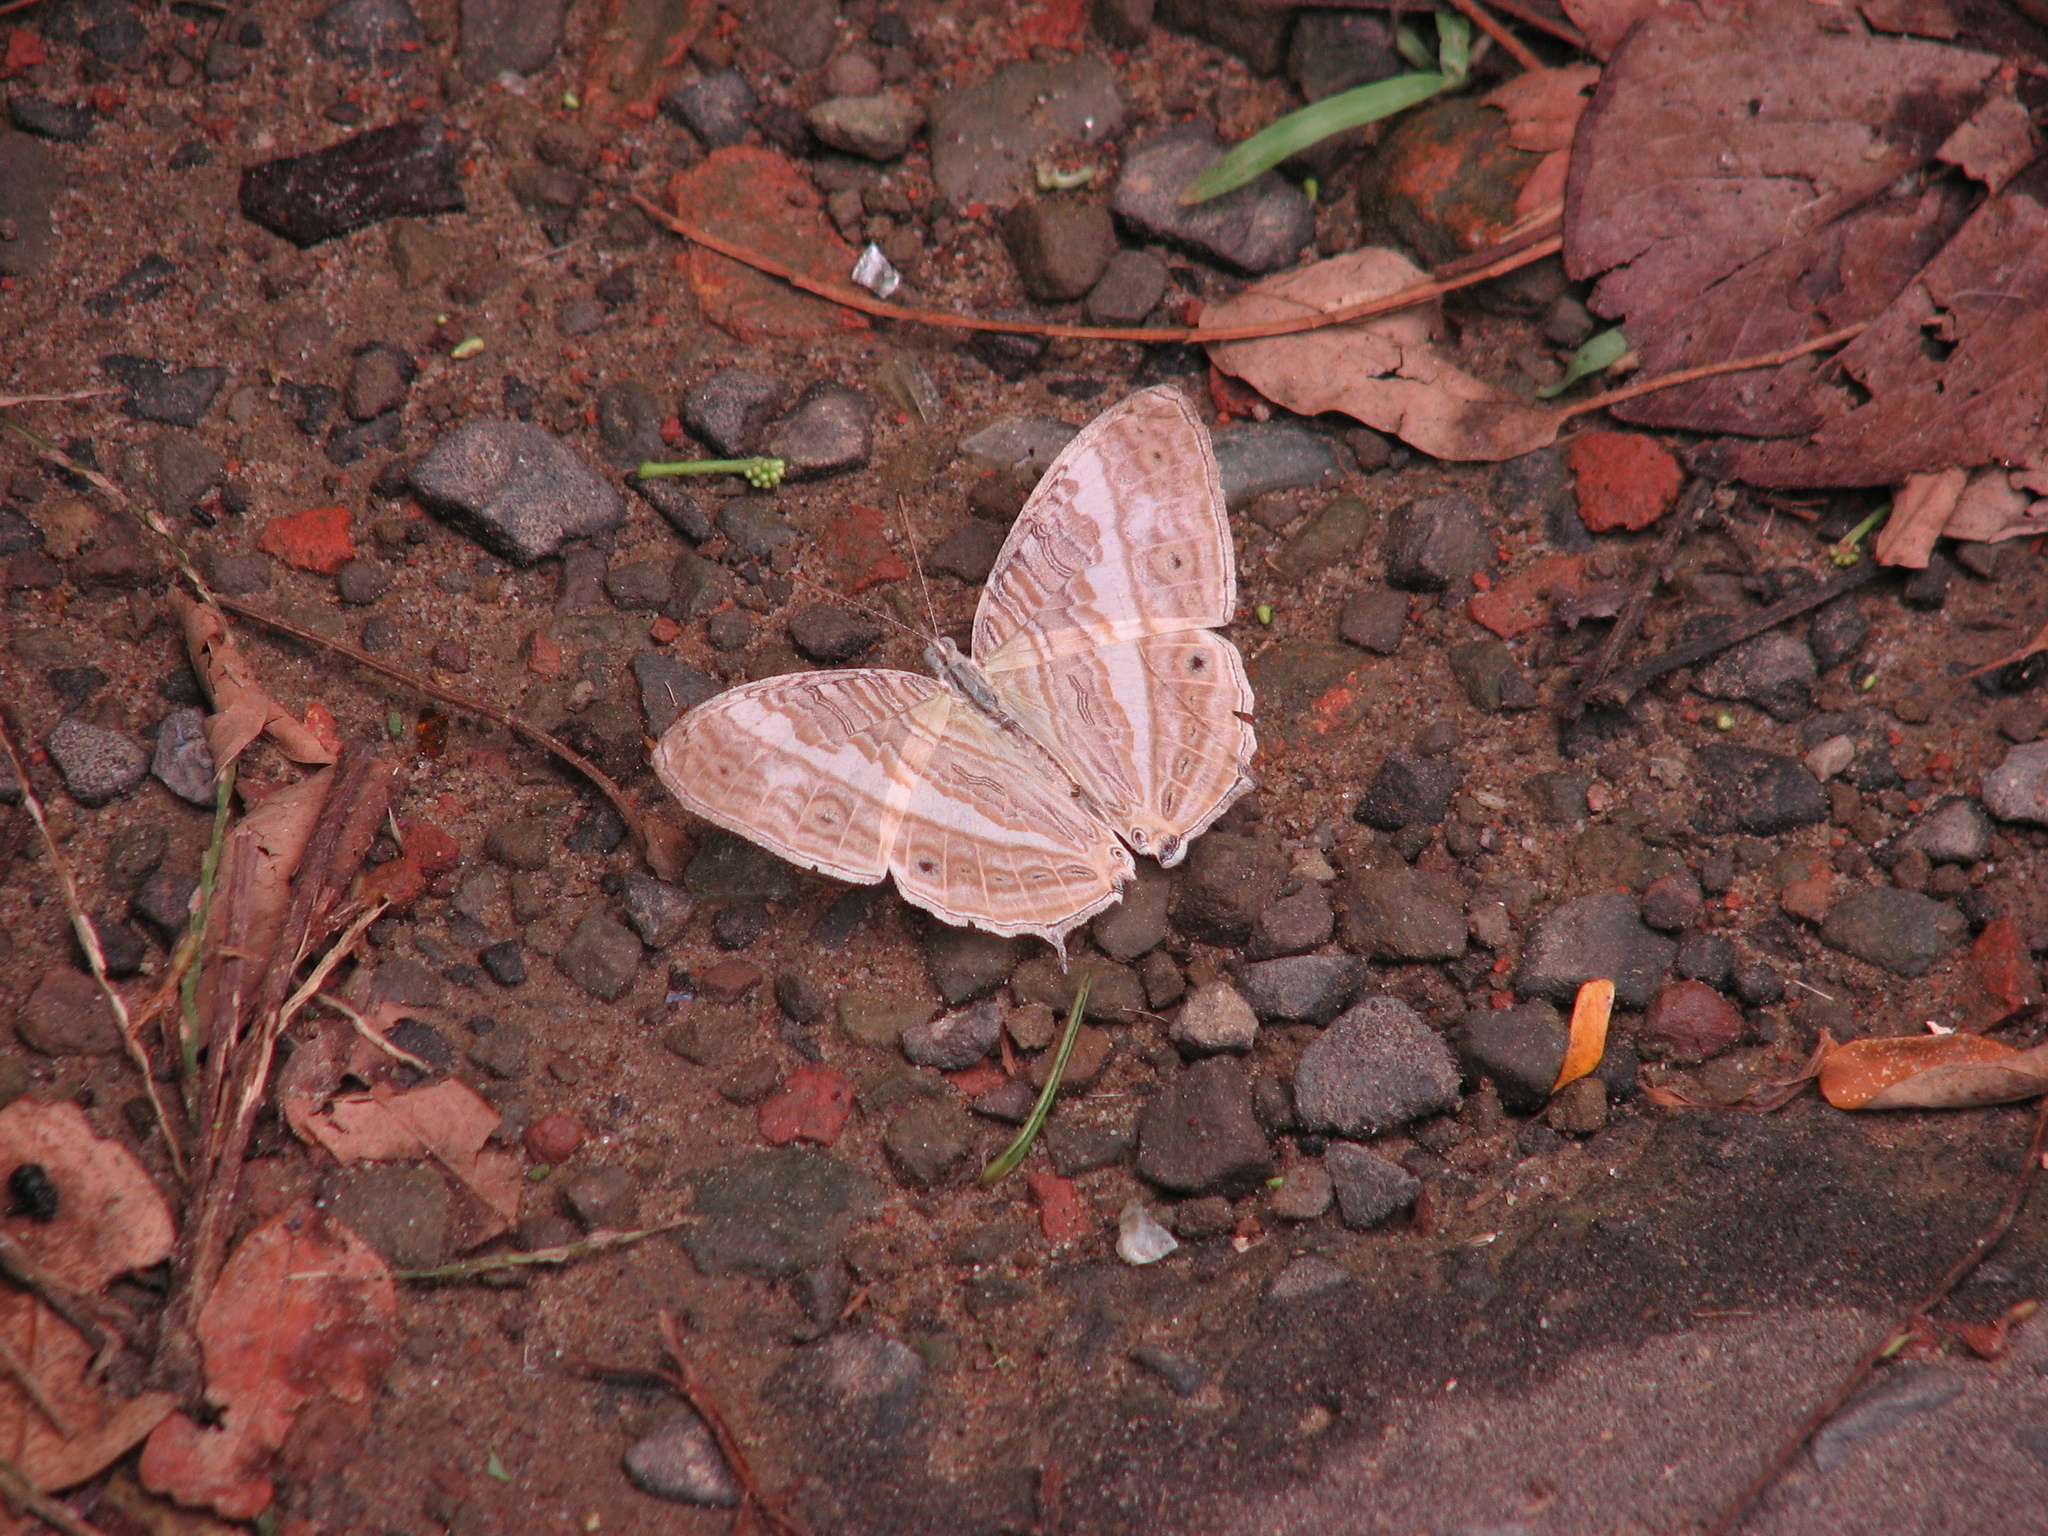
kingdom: Animalia
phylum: Arthropoda
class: Insecta
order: Lepidoptera
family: Nymphalidae
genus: Cyrestis
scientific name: Cyrestis cocles
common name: Marbled map
